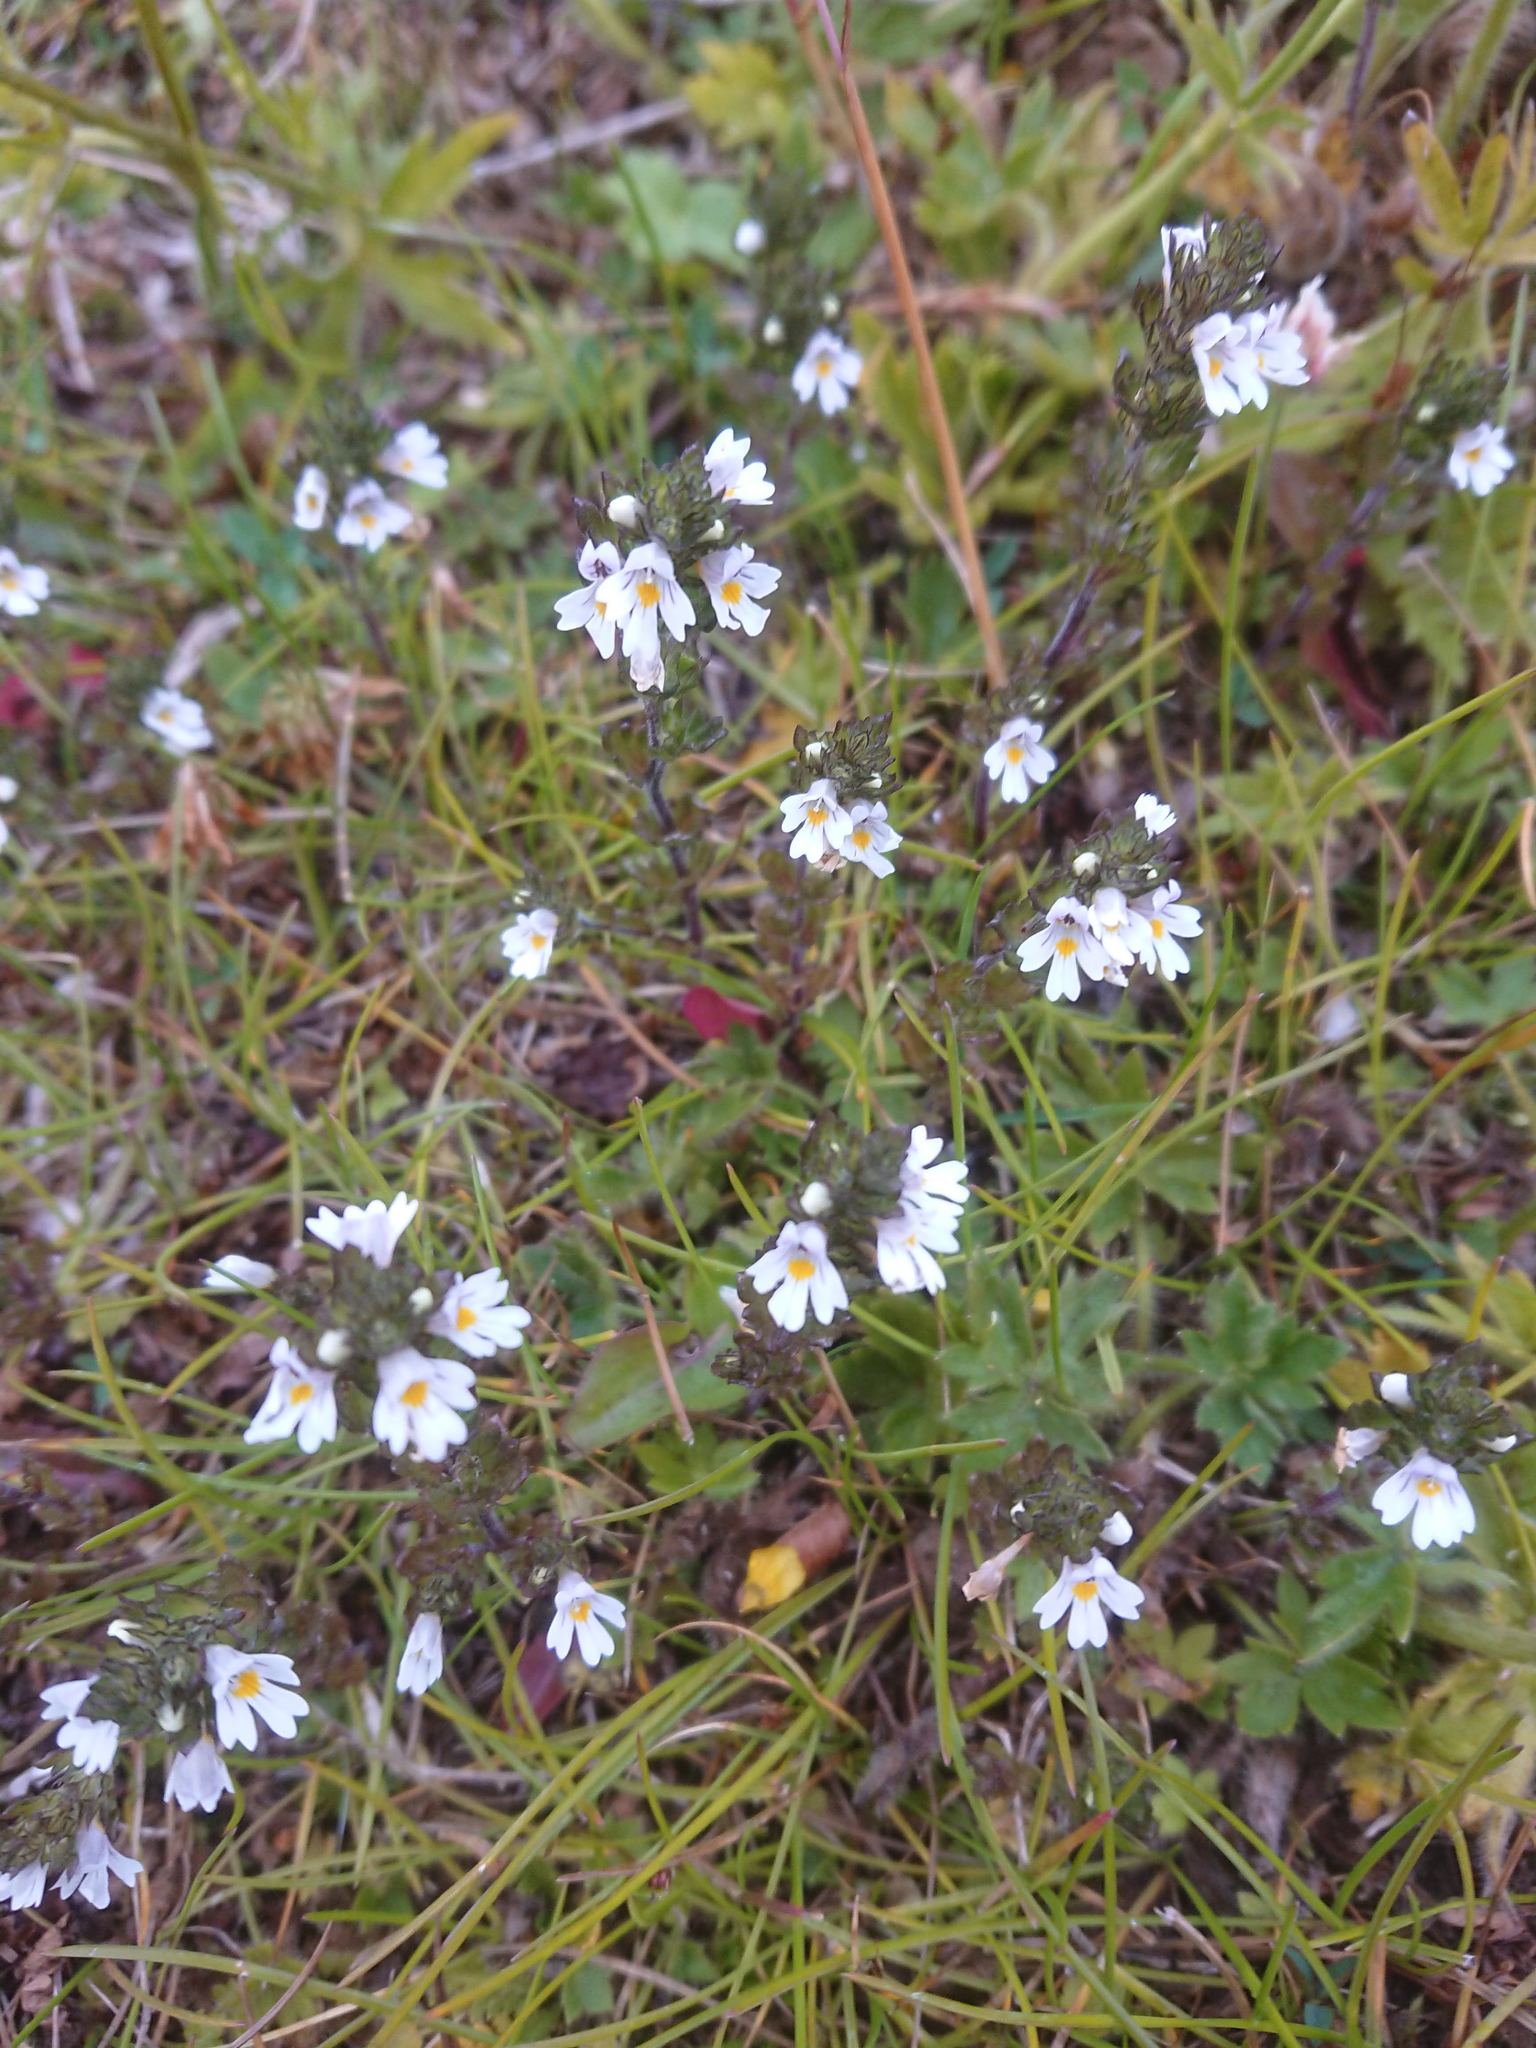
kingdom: Plantae
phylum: Tracheophyta
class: Magnoliopsida
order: Lamiales
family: Orobanchaceae
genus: Euphrasia
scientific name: Euphrasia officinalis
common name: Eyebright
